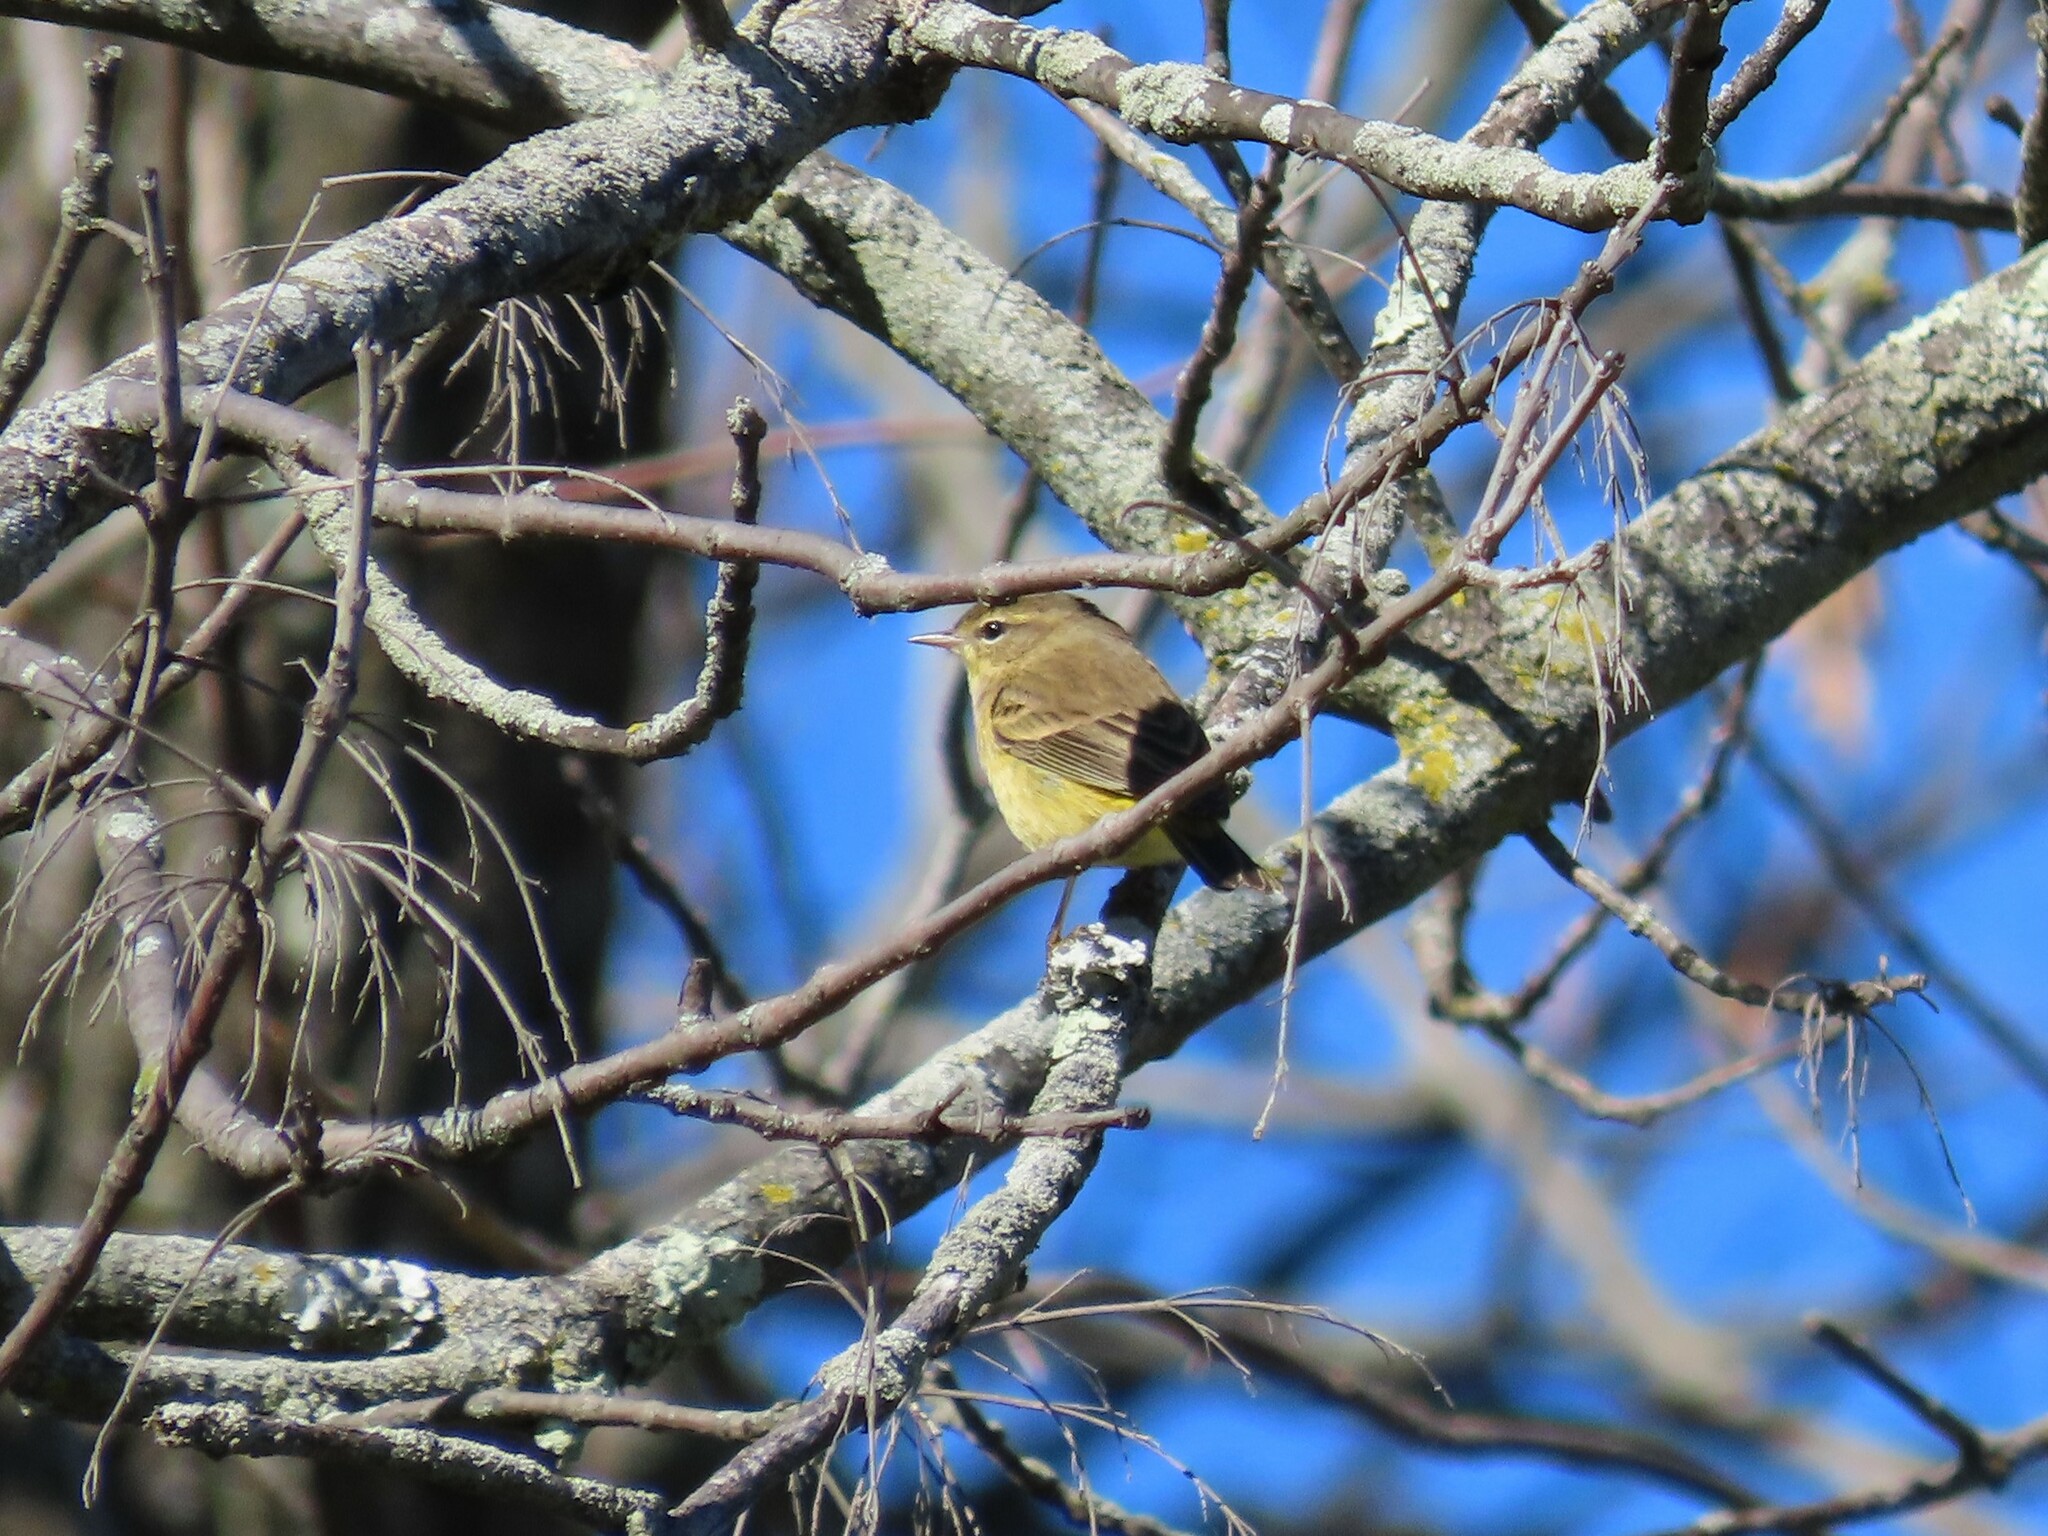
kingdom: Animalia
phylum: Chordata
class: Aves
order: Passeriformes
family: Parulidae
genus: Setophaga
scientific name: Setophaga palmarum
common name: Palm warbler
